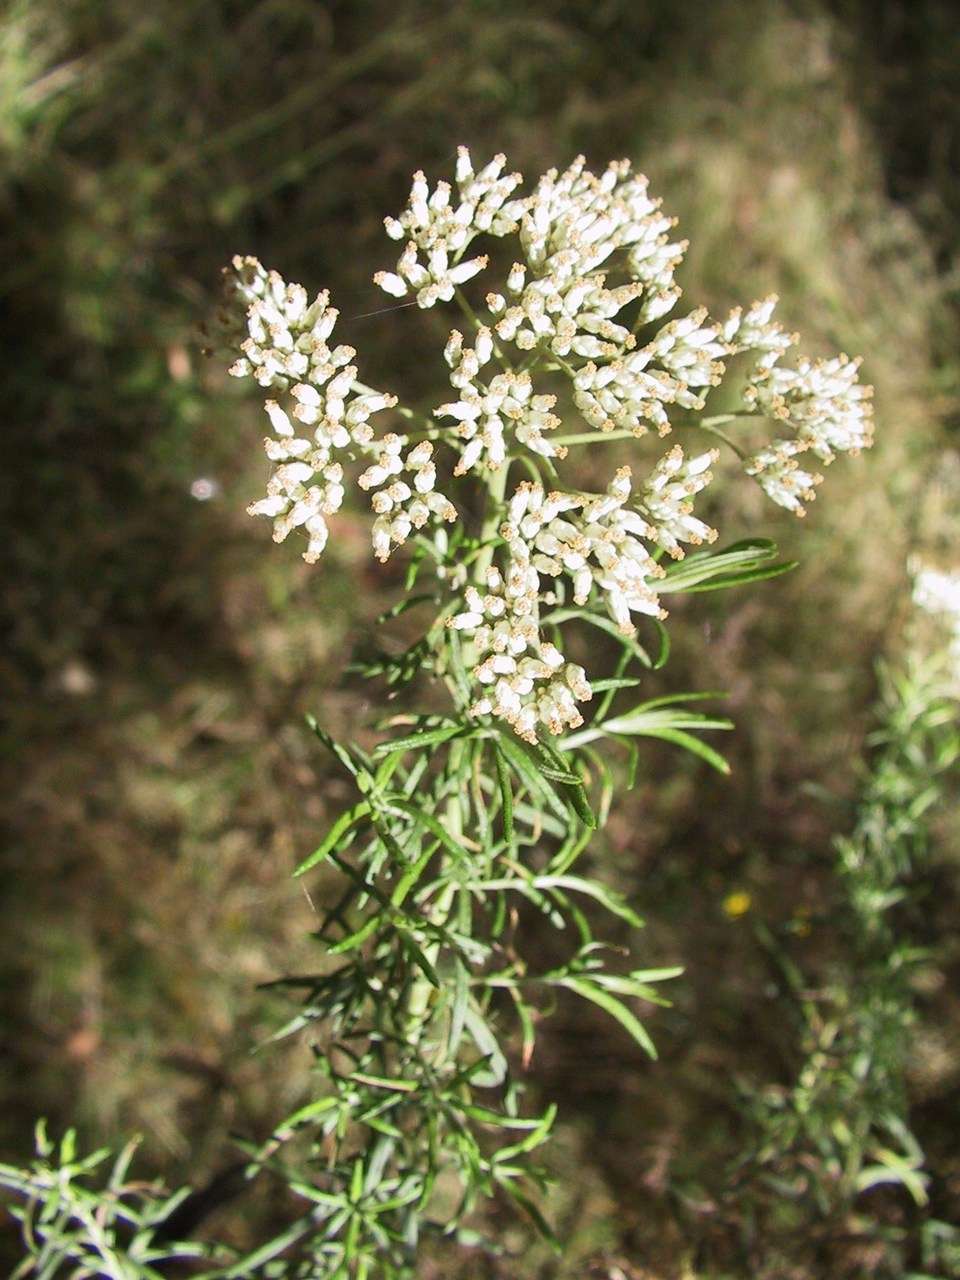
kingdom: Plantae
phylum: Tracheophyta
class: Magnoliopsida
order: Asterales
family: Asteraceae
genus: Cassinia
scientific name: Cassinia aculeata
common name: Australian tauhinu
